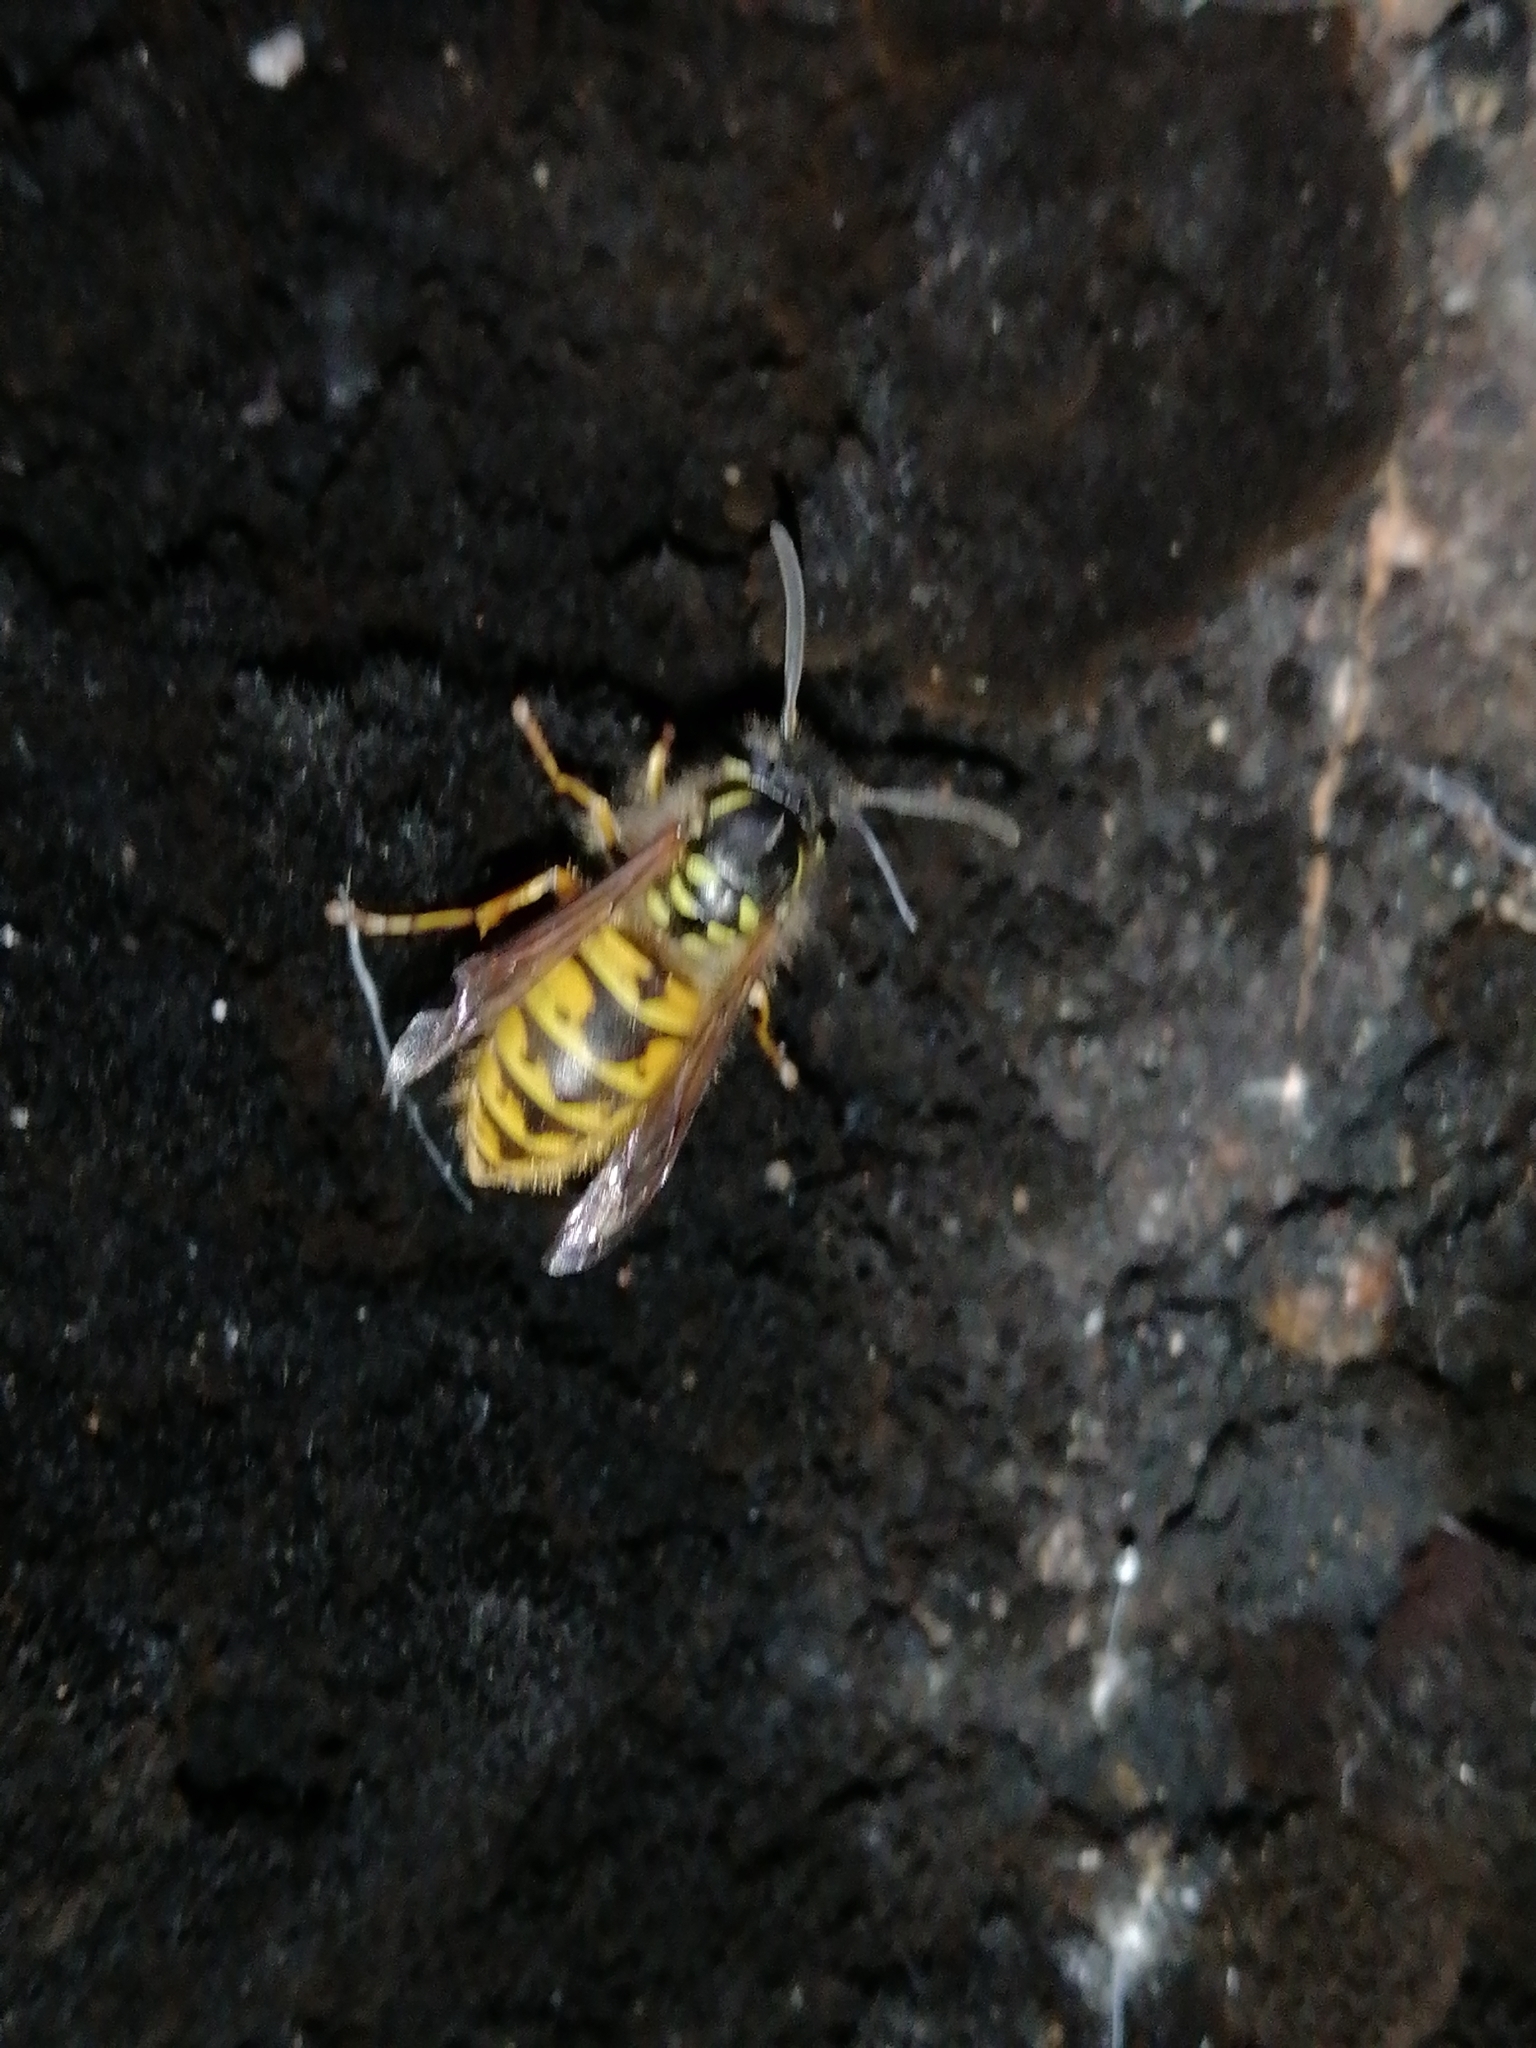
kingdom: Animalia
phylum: Arthropoda
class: Insecta
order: Hymenoptera
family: Vespidae
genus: Vespula
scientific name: Vespula vulgaris
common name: Common wasp
